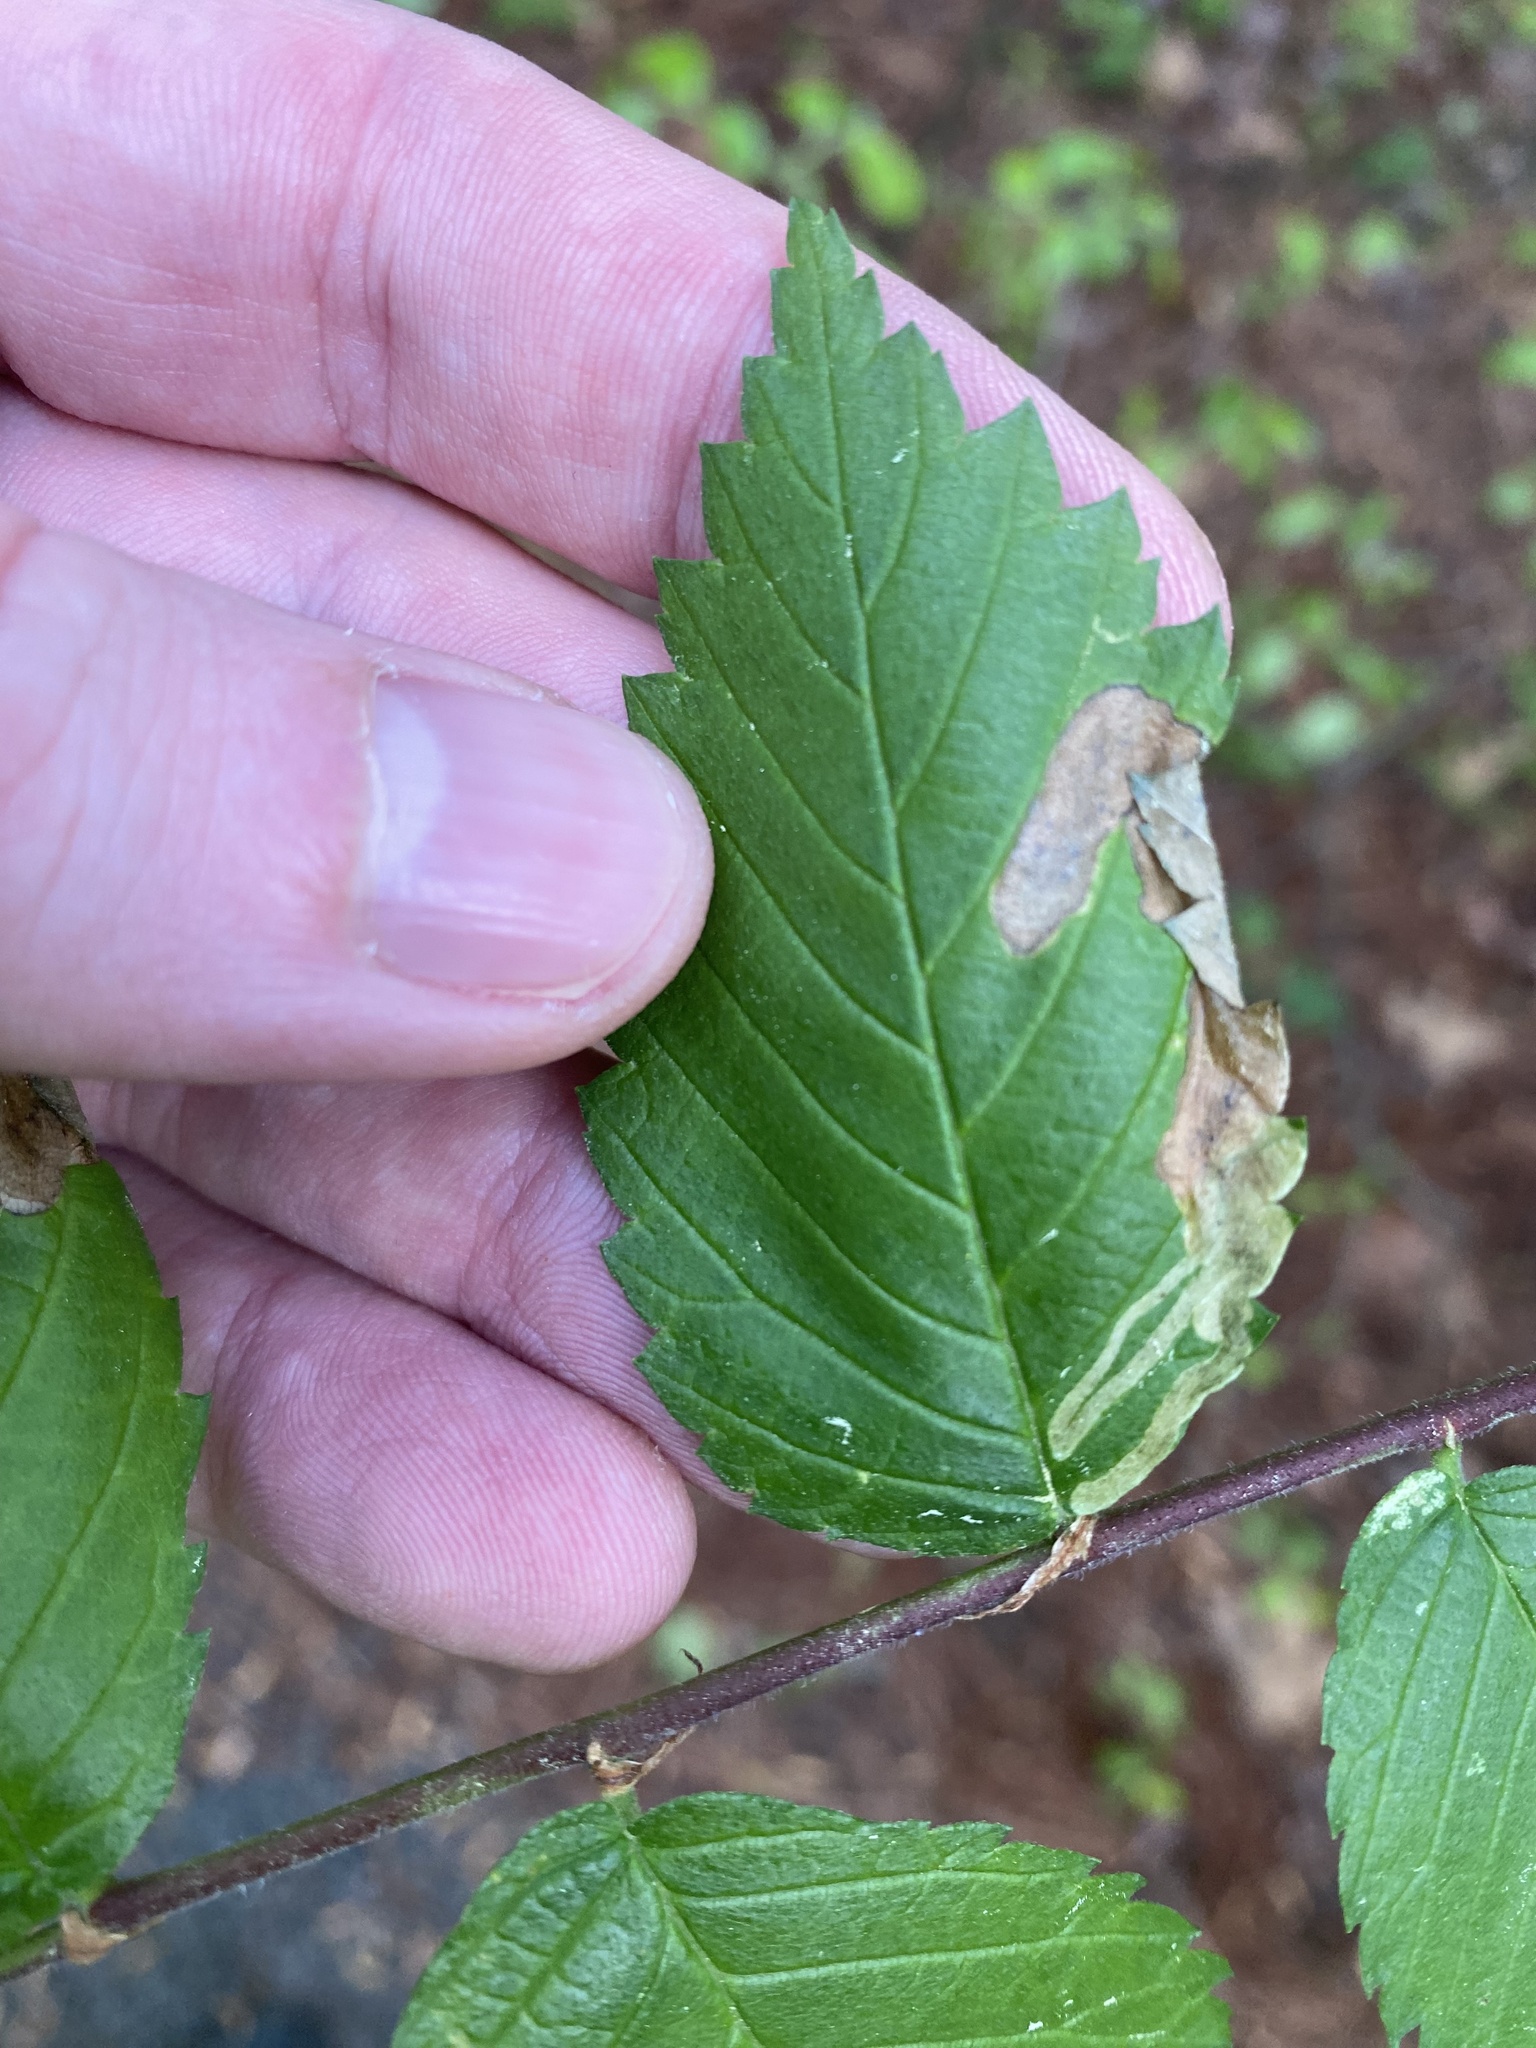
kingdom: Animalia
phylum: Arthropoda
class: Insecta
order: Diptera
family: Agromyzidae
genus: Agromyza
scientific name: Agromyza aristata
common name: Elm agromyzid leafminer
